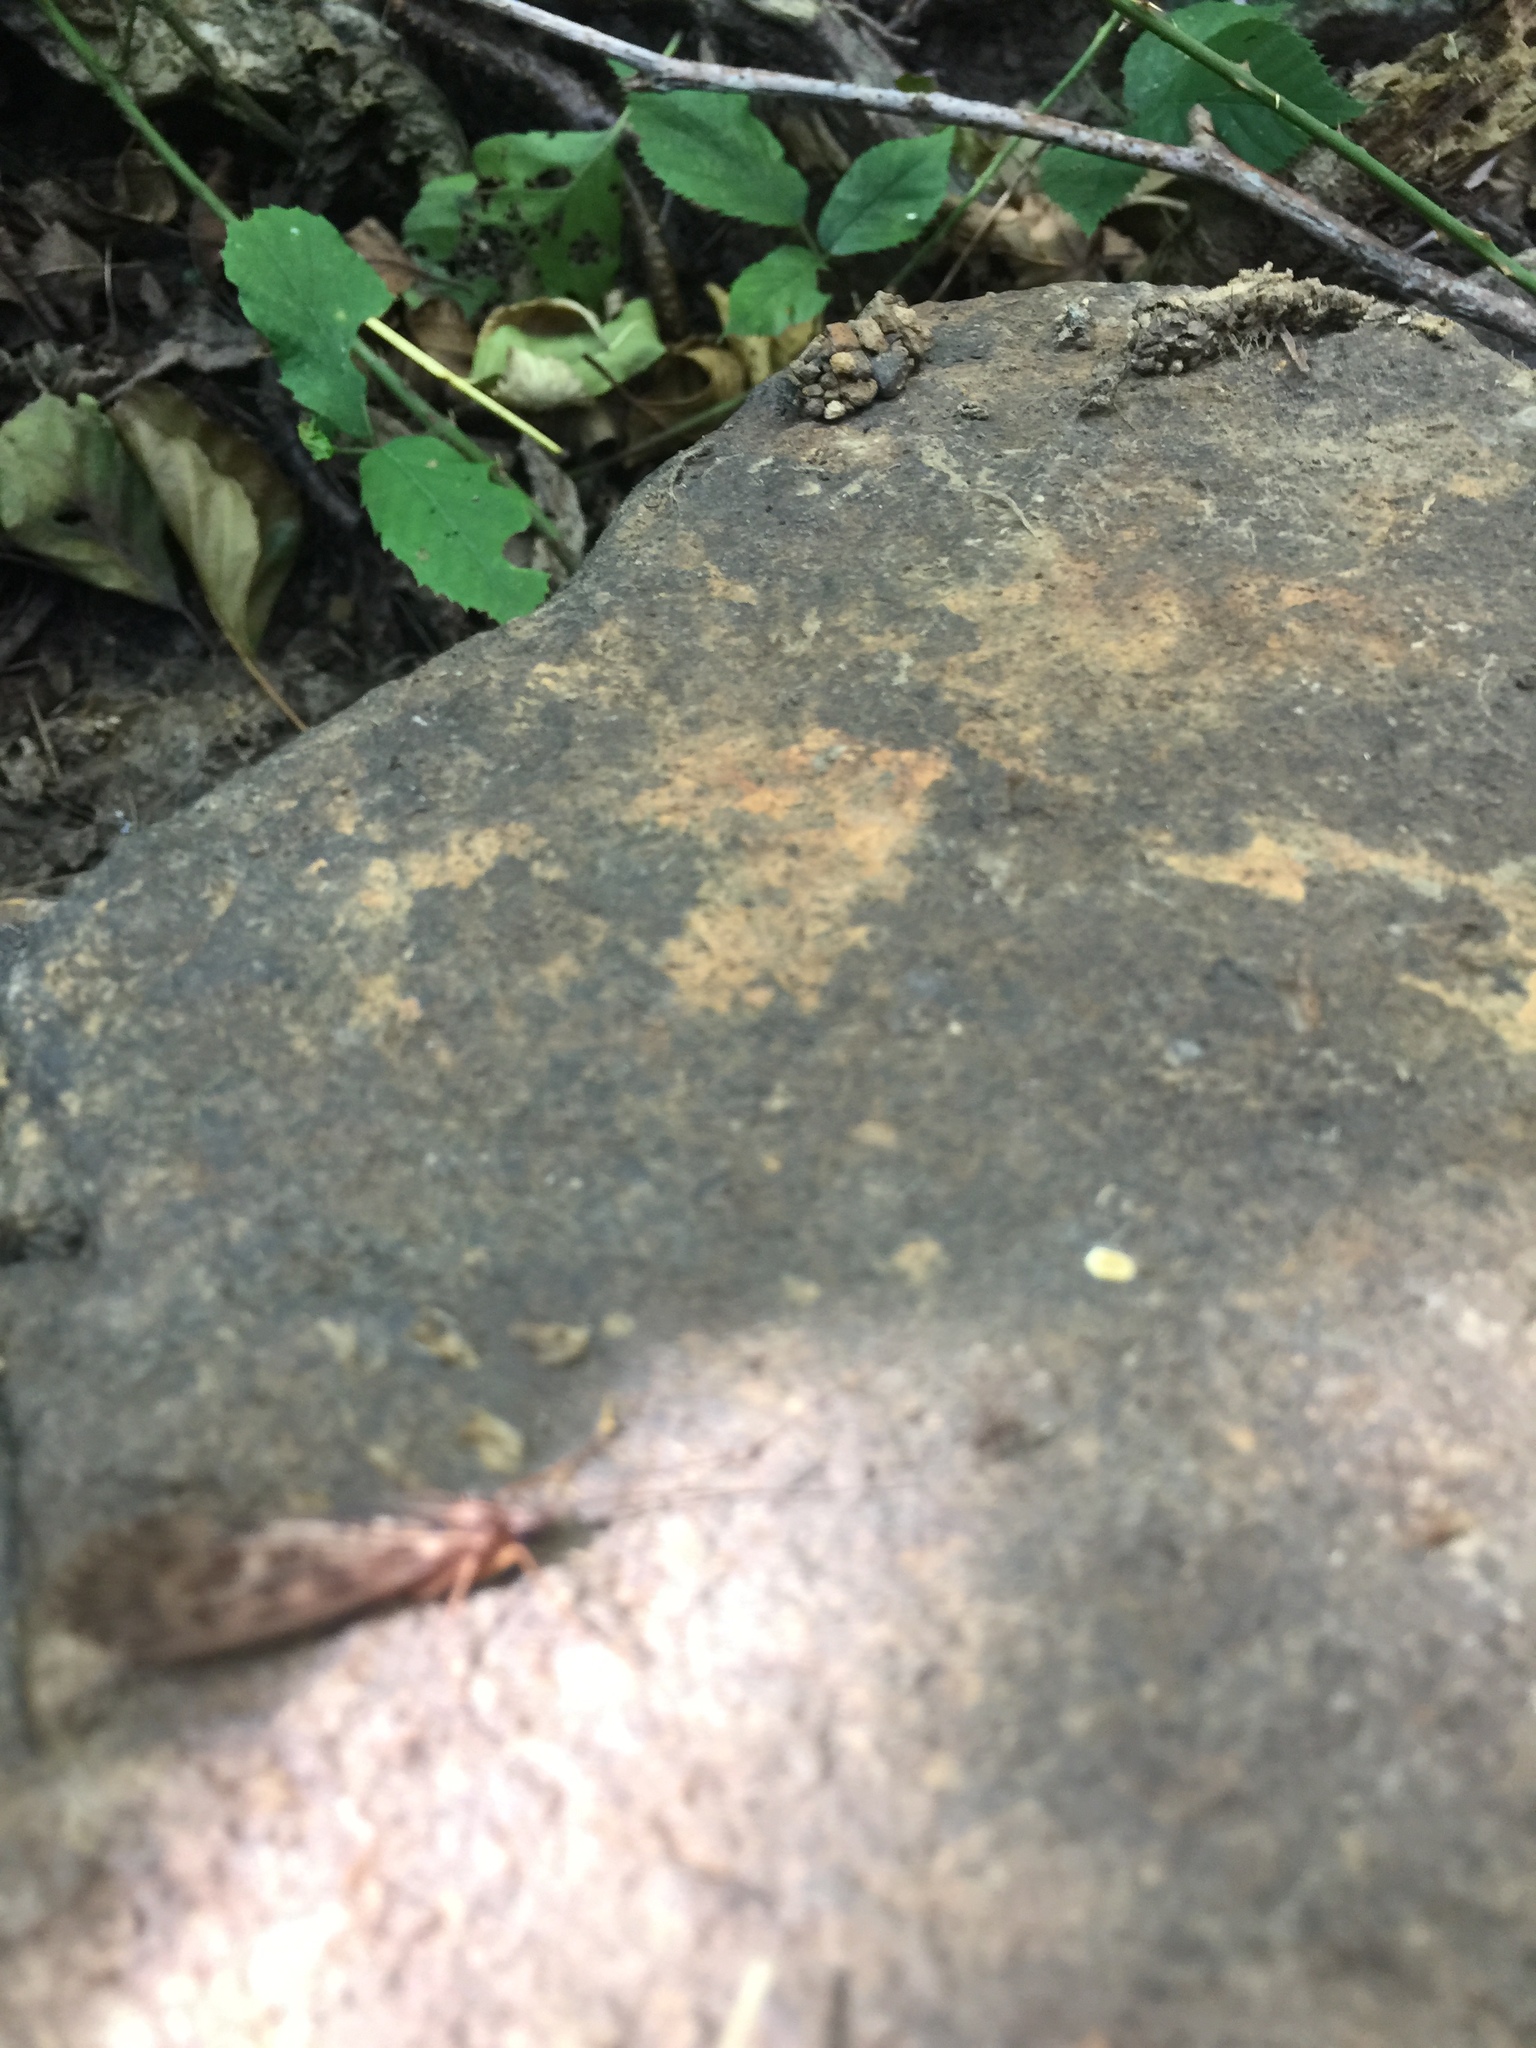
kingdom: Animalia
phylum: Arthropoda
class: Insecta
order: Trichoptera
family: Limnephilidae
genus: Halesus
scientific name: Halesus radiatus
